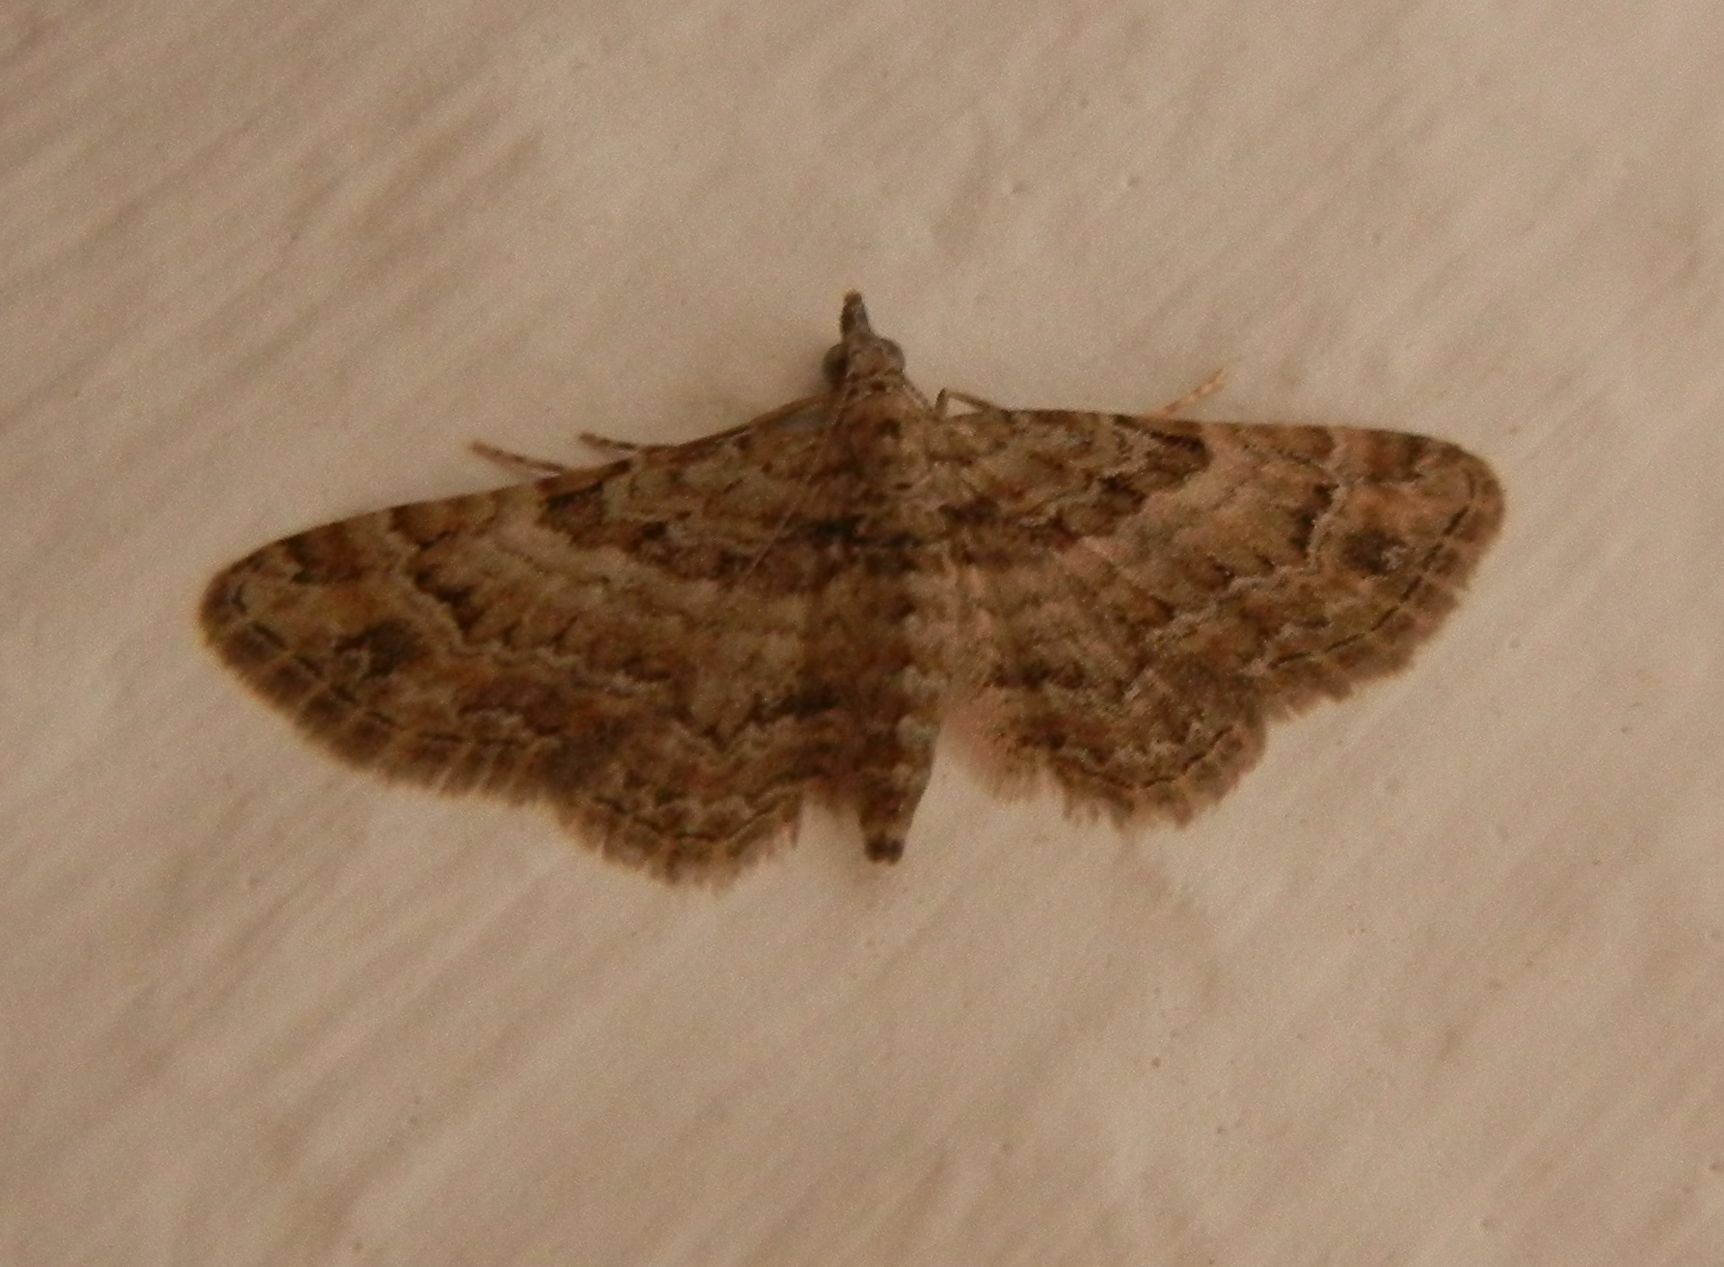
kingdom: Animalia
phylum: Arthropoda
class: Insecta
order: Lepidoptera
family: Geometridae
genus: Gymnoscelis
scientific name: Gymnoscelis rufifasciata
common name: Double-striped pug
